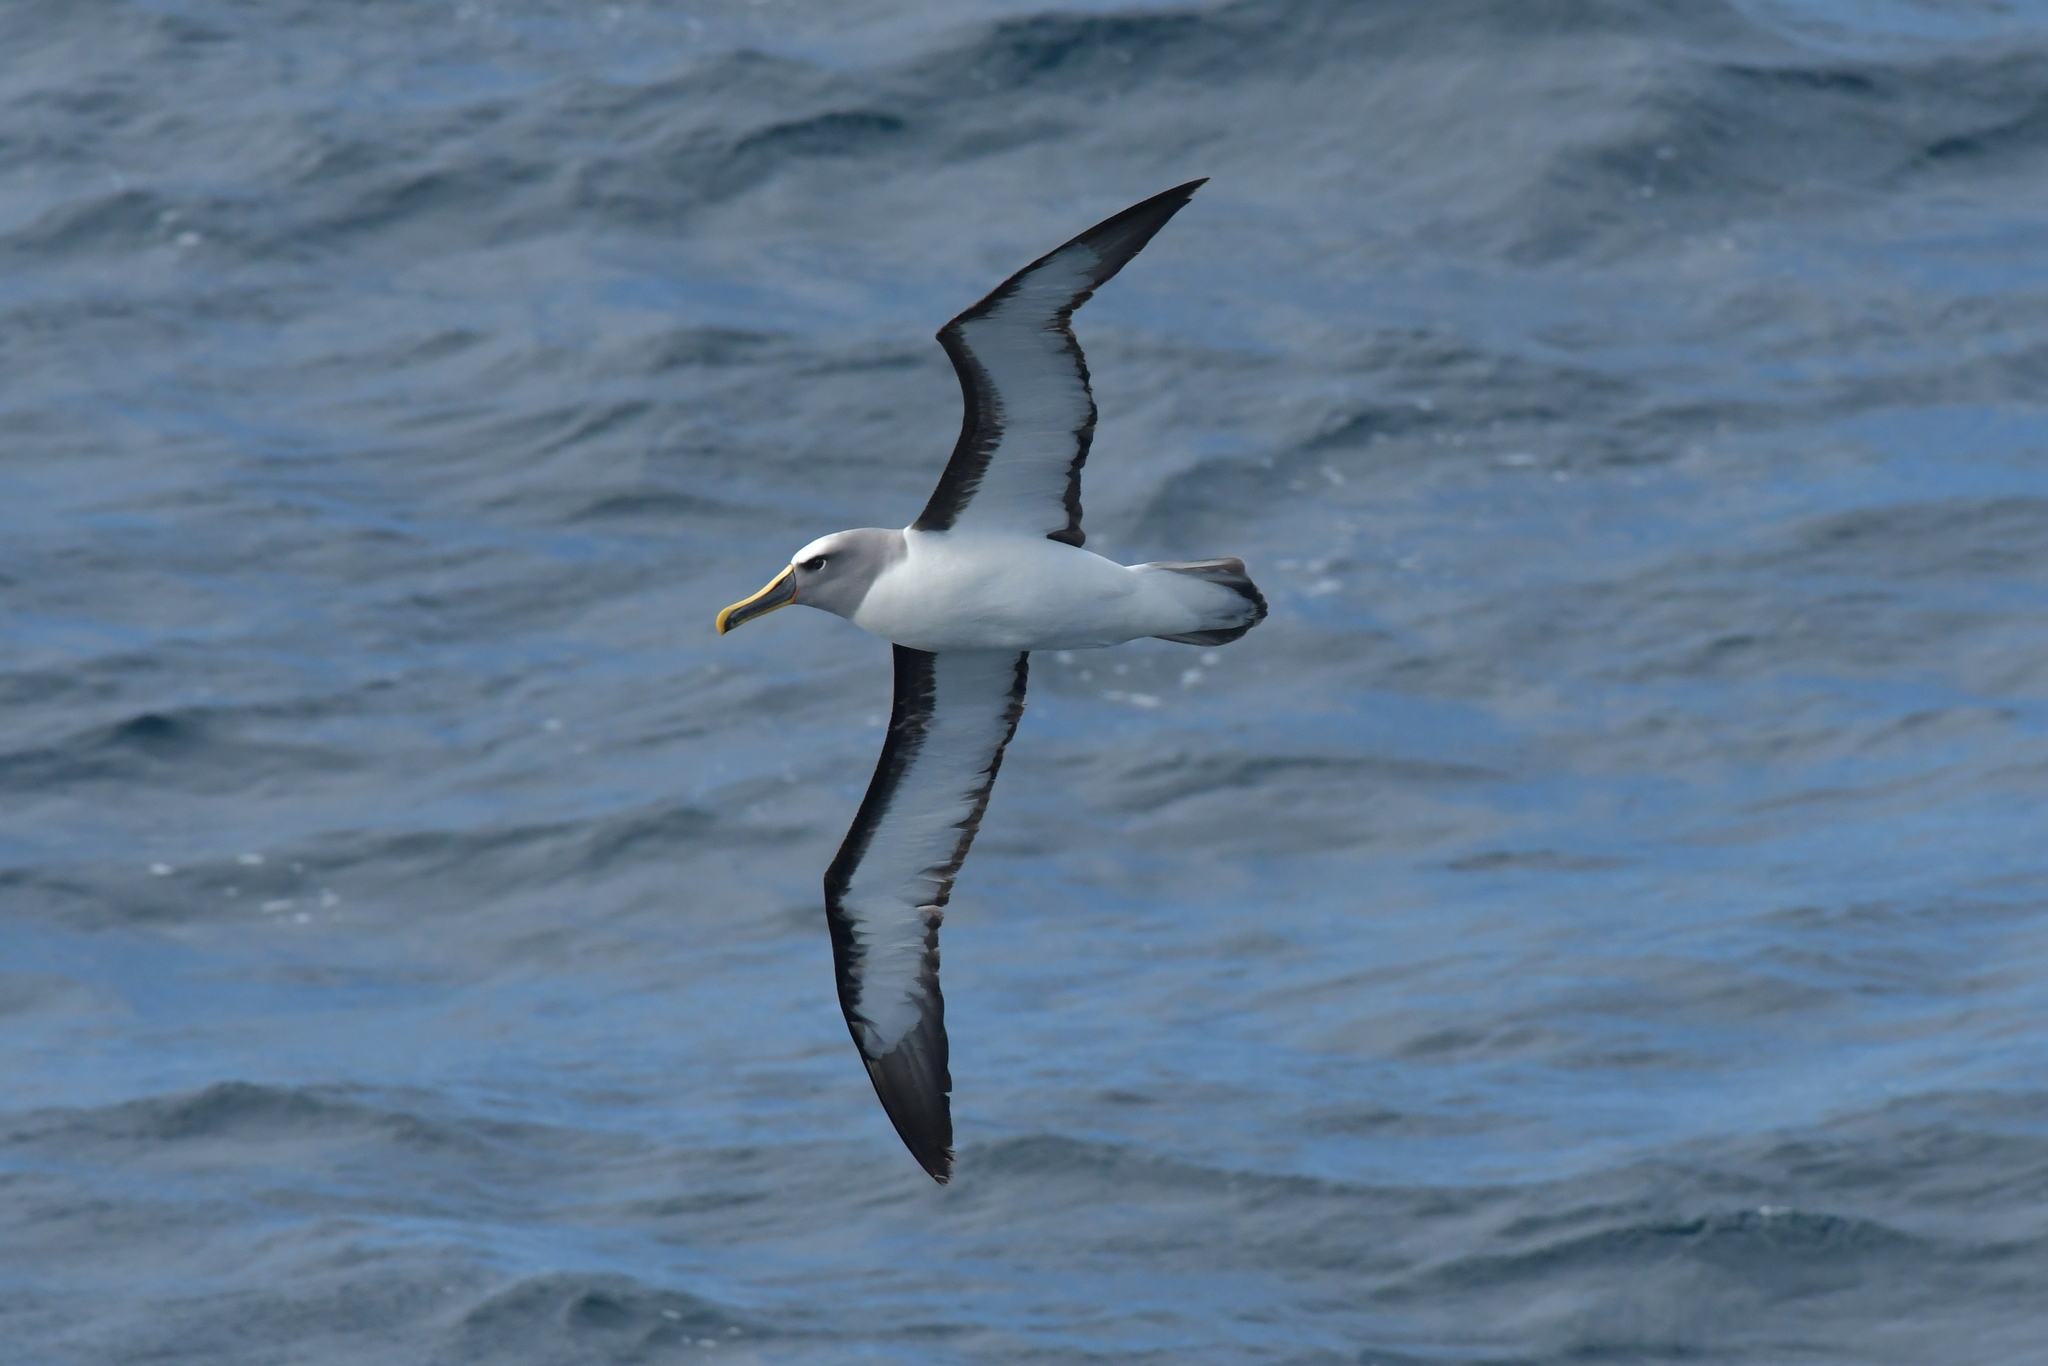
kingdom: Animalia
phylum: Chordata
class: Aves
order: Procellariiformes
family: Diomedeidae
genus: Thalassarche
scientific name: Thalassarche bulleri
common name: Buller's albatross
